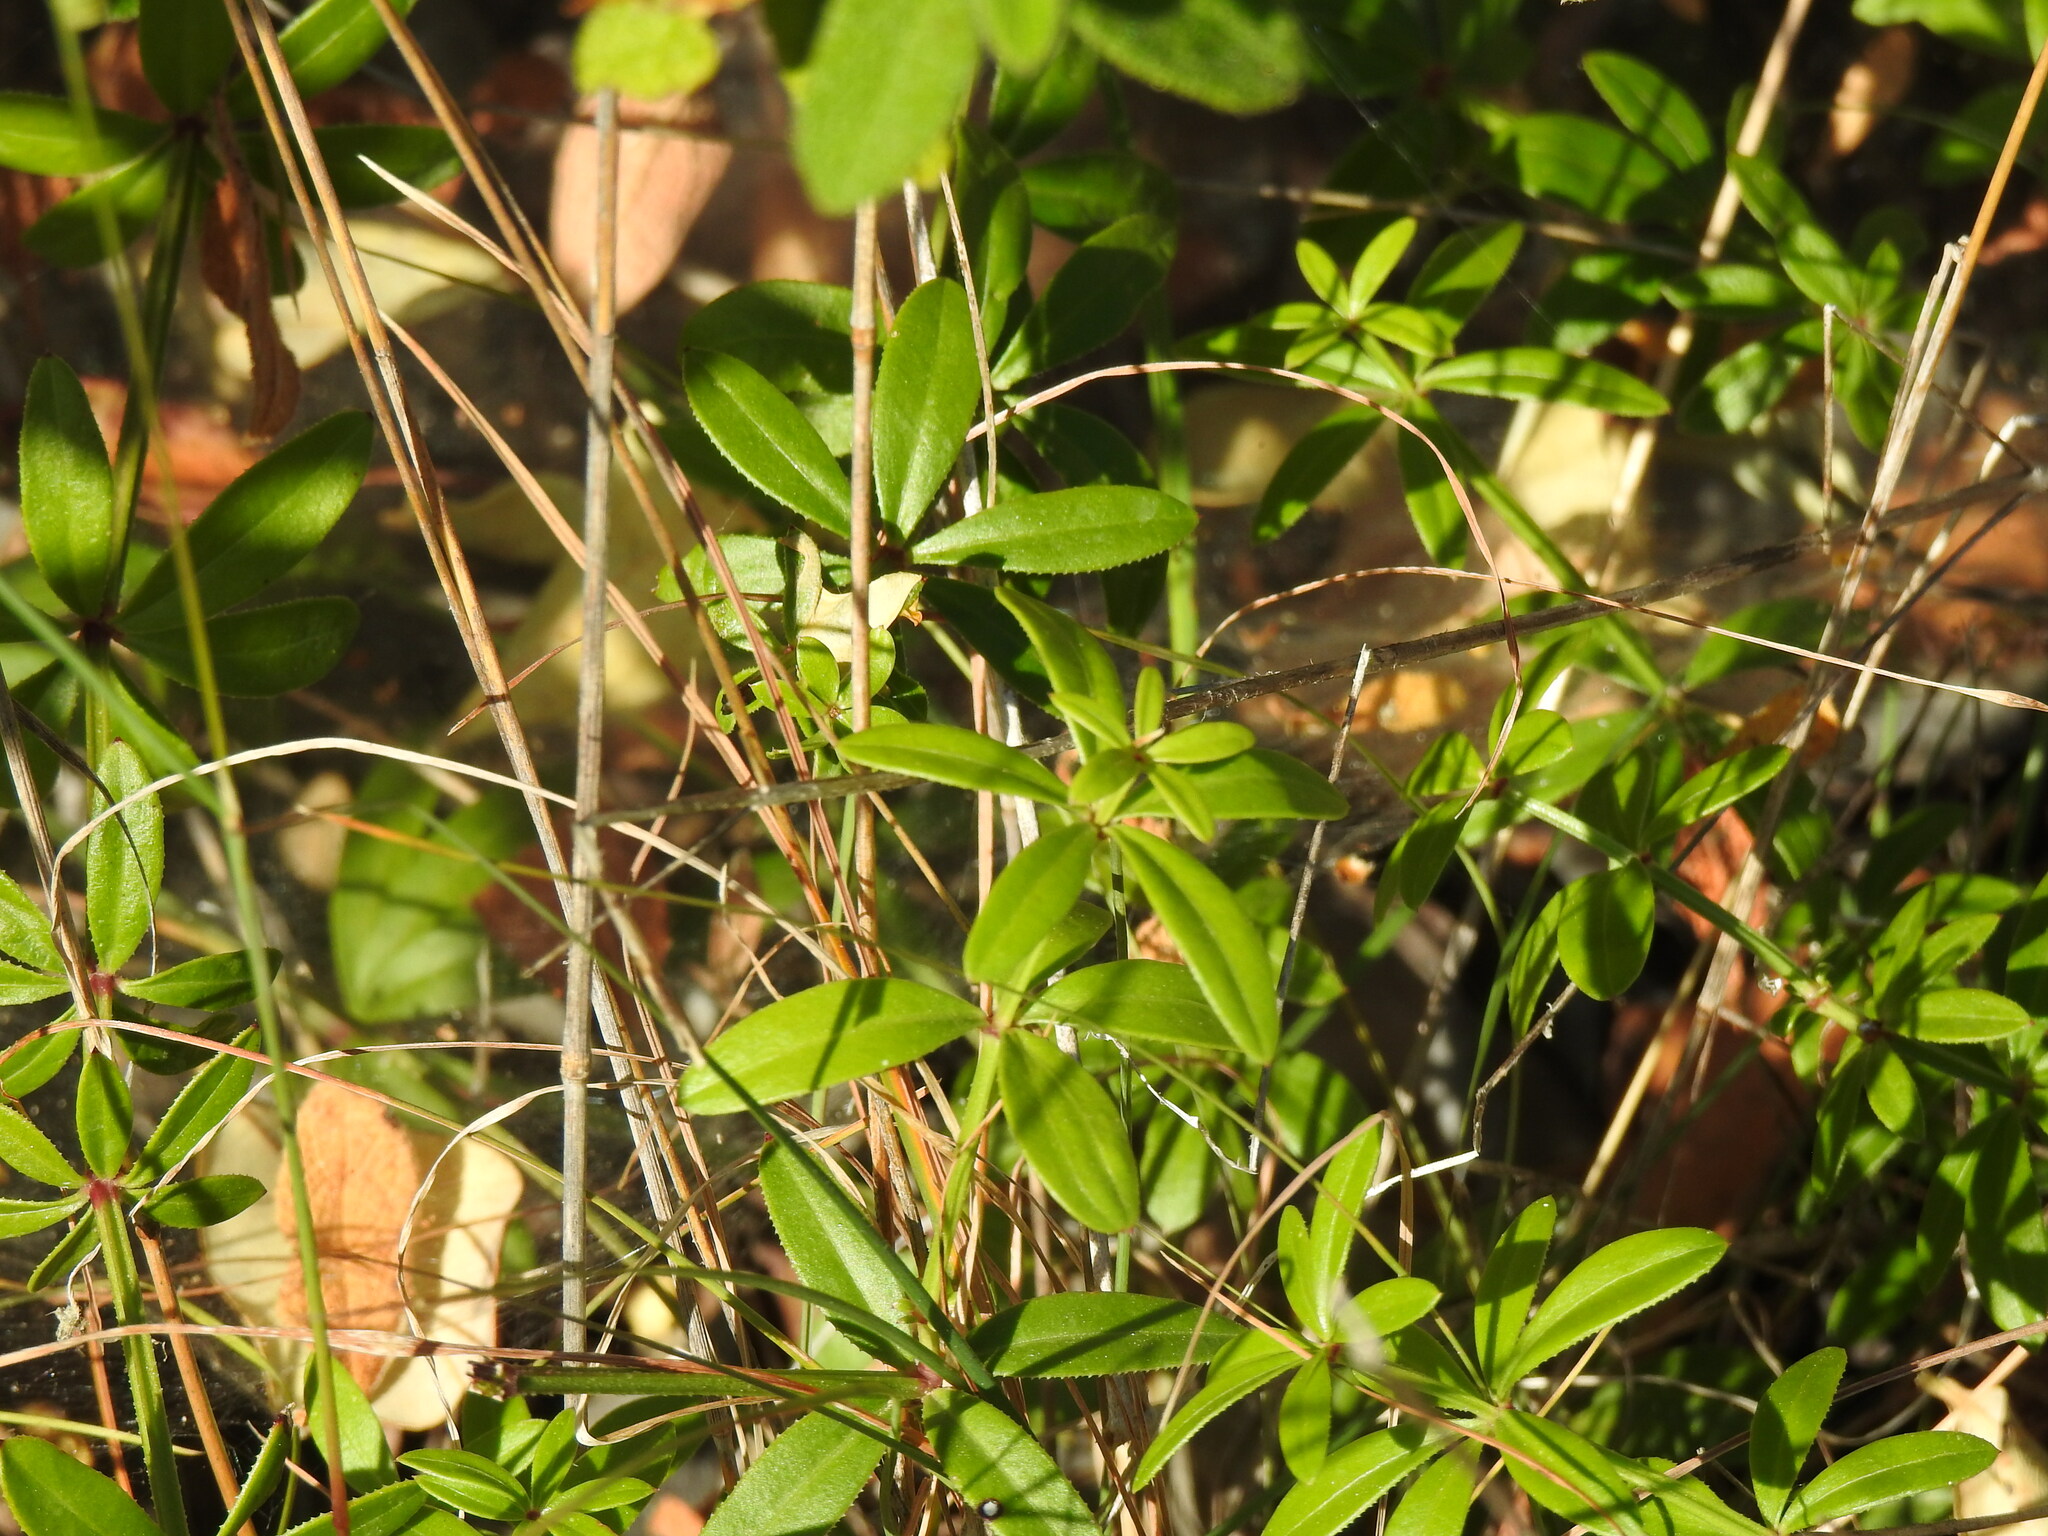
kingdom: Plantae
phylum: Tracheophyta
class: Magnoliopsida
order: Gentianales
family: Rubiaceae
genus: Rubia
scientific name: Rubia peregrina
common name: Wild madder
